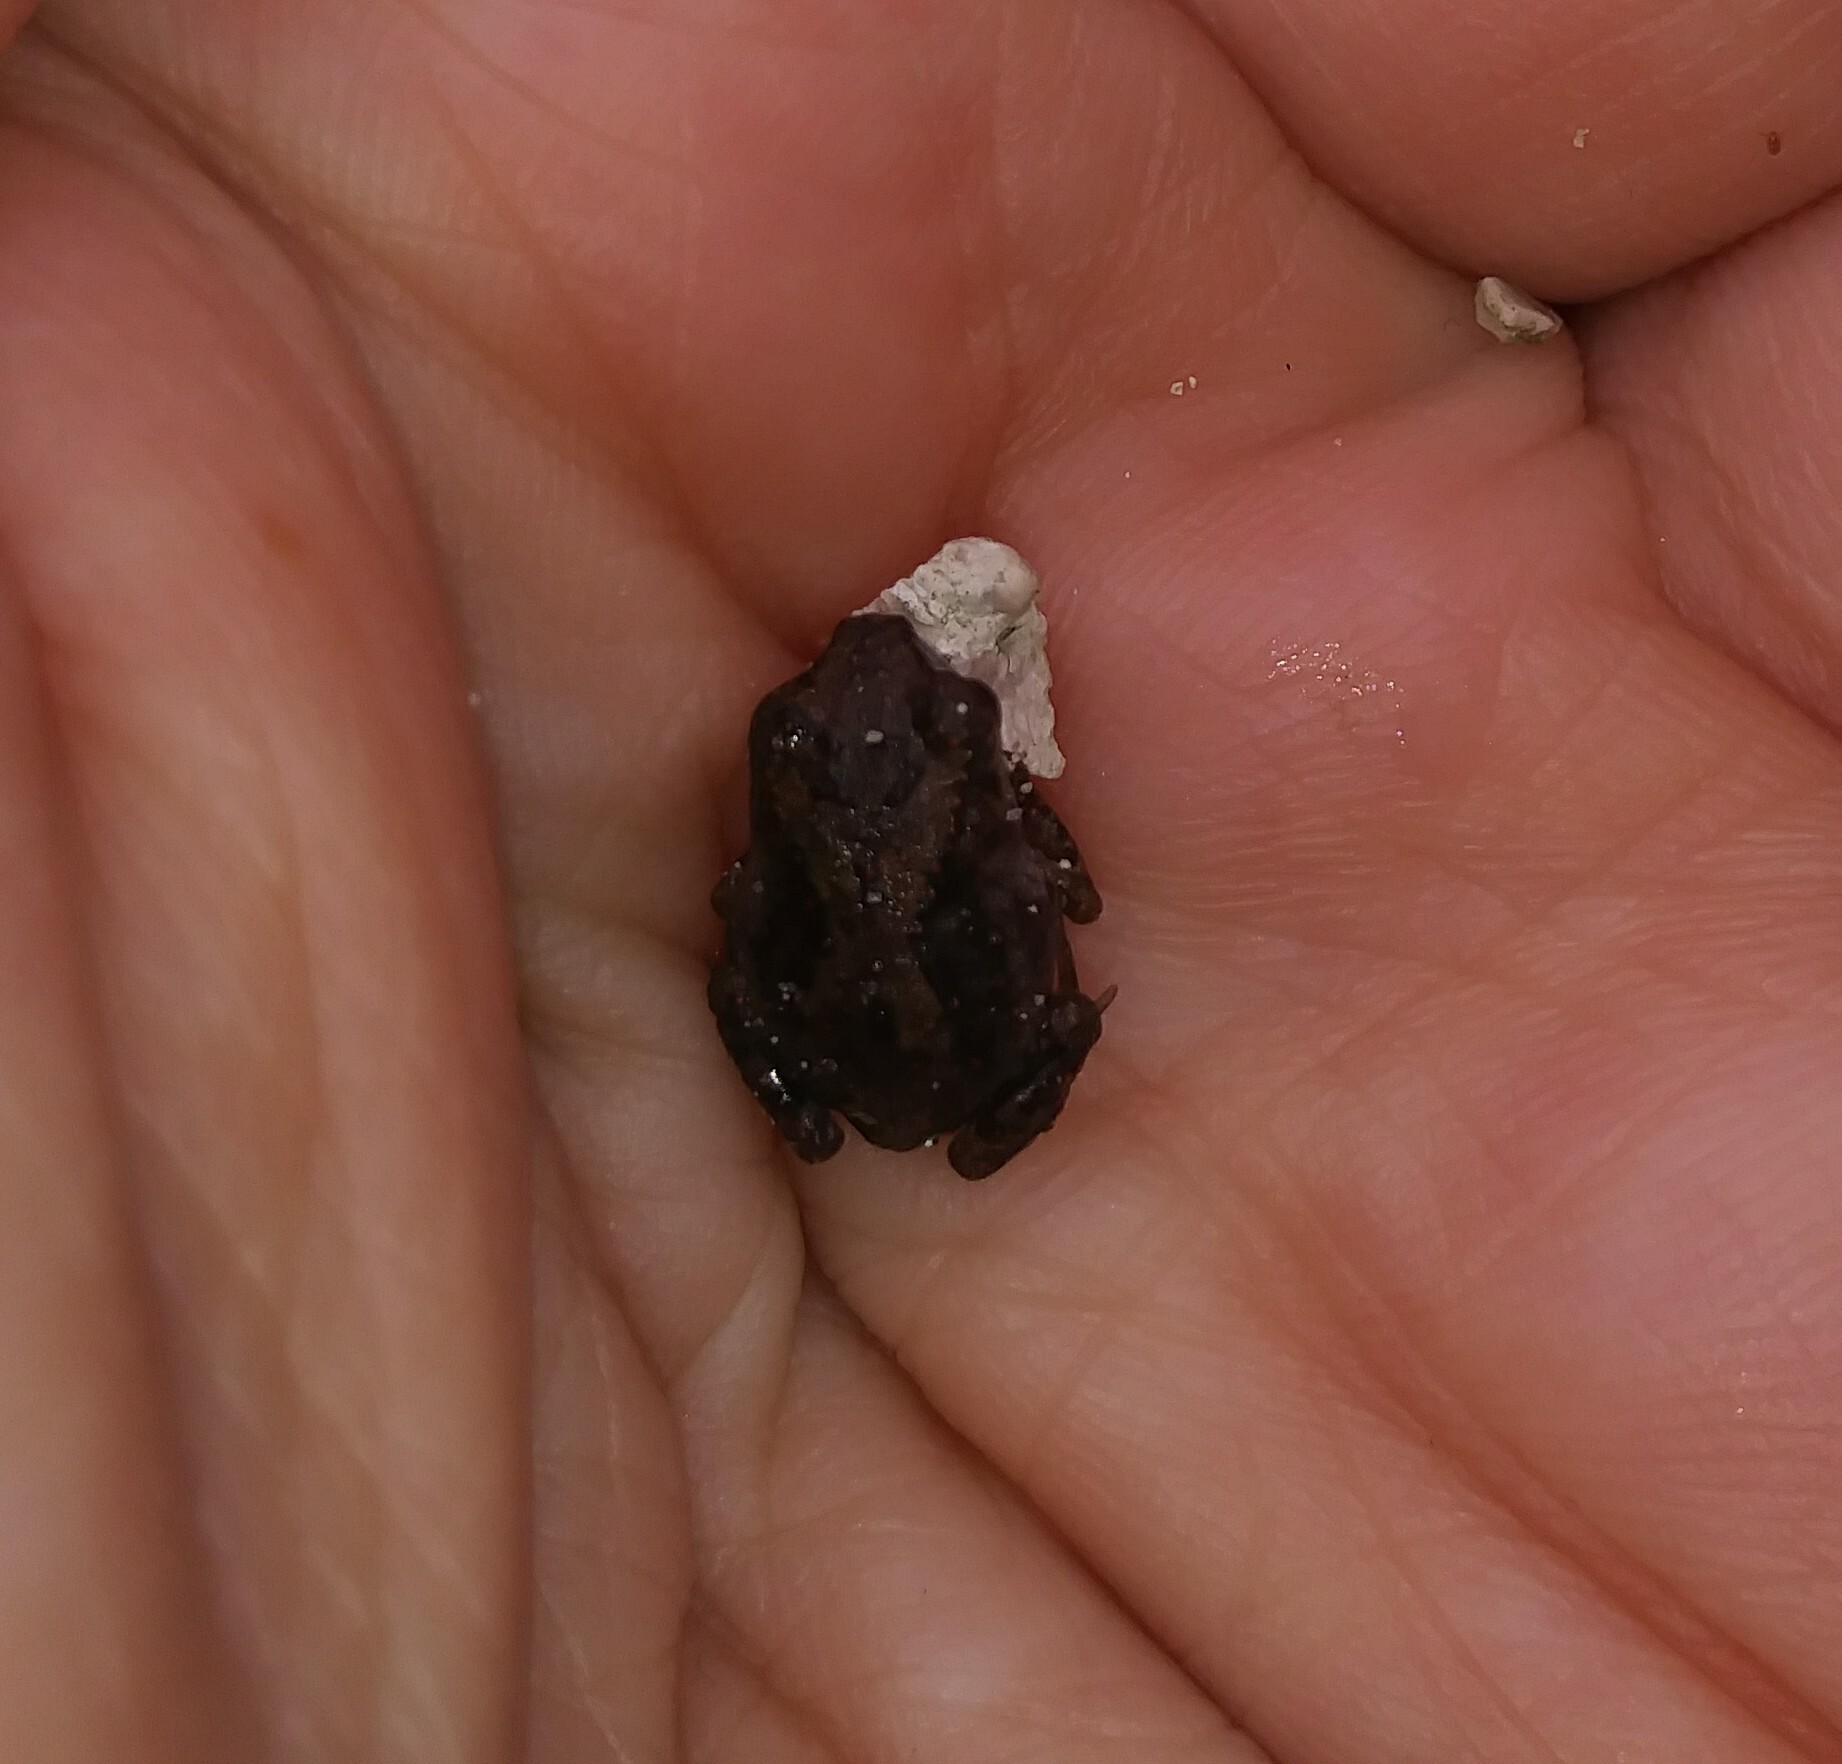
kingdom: Animalia
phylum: Chordata
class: Amphibia
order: Anura
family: Scaphiopodidae
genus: Scaphiopus
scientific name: Scaphiopus holbrookii
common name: Eastern spadefoot toad
